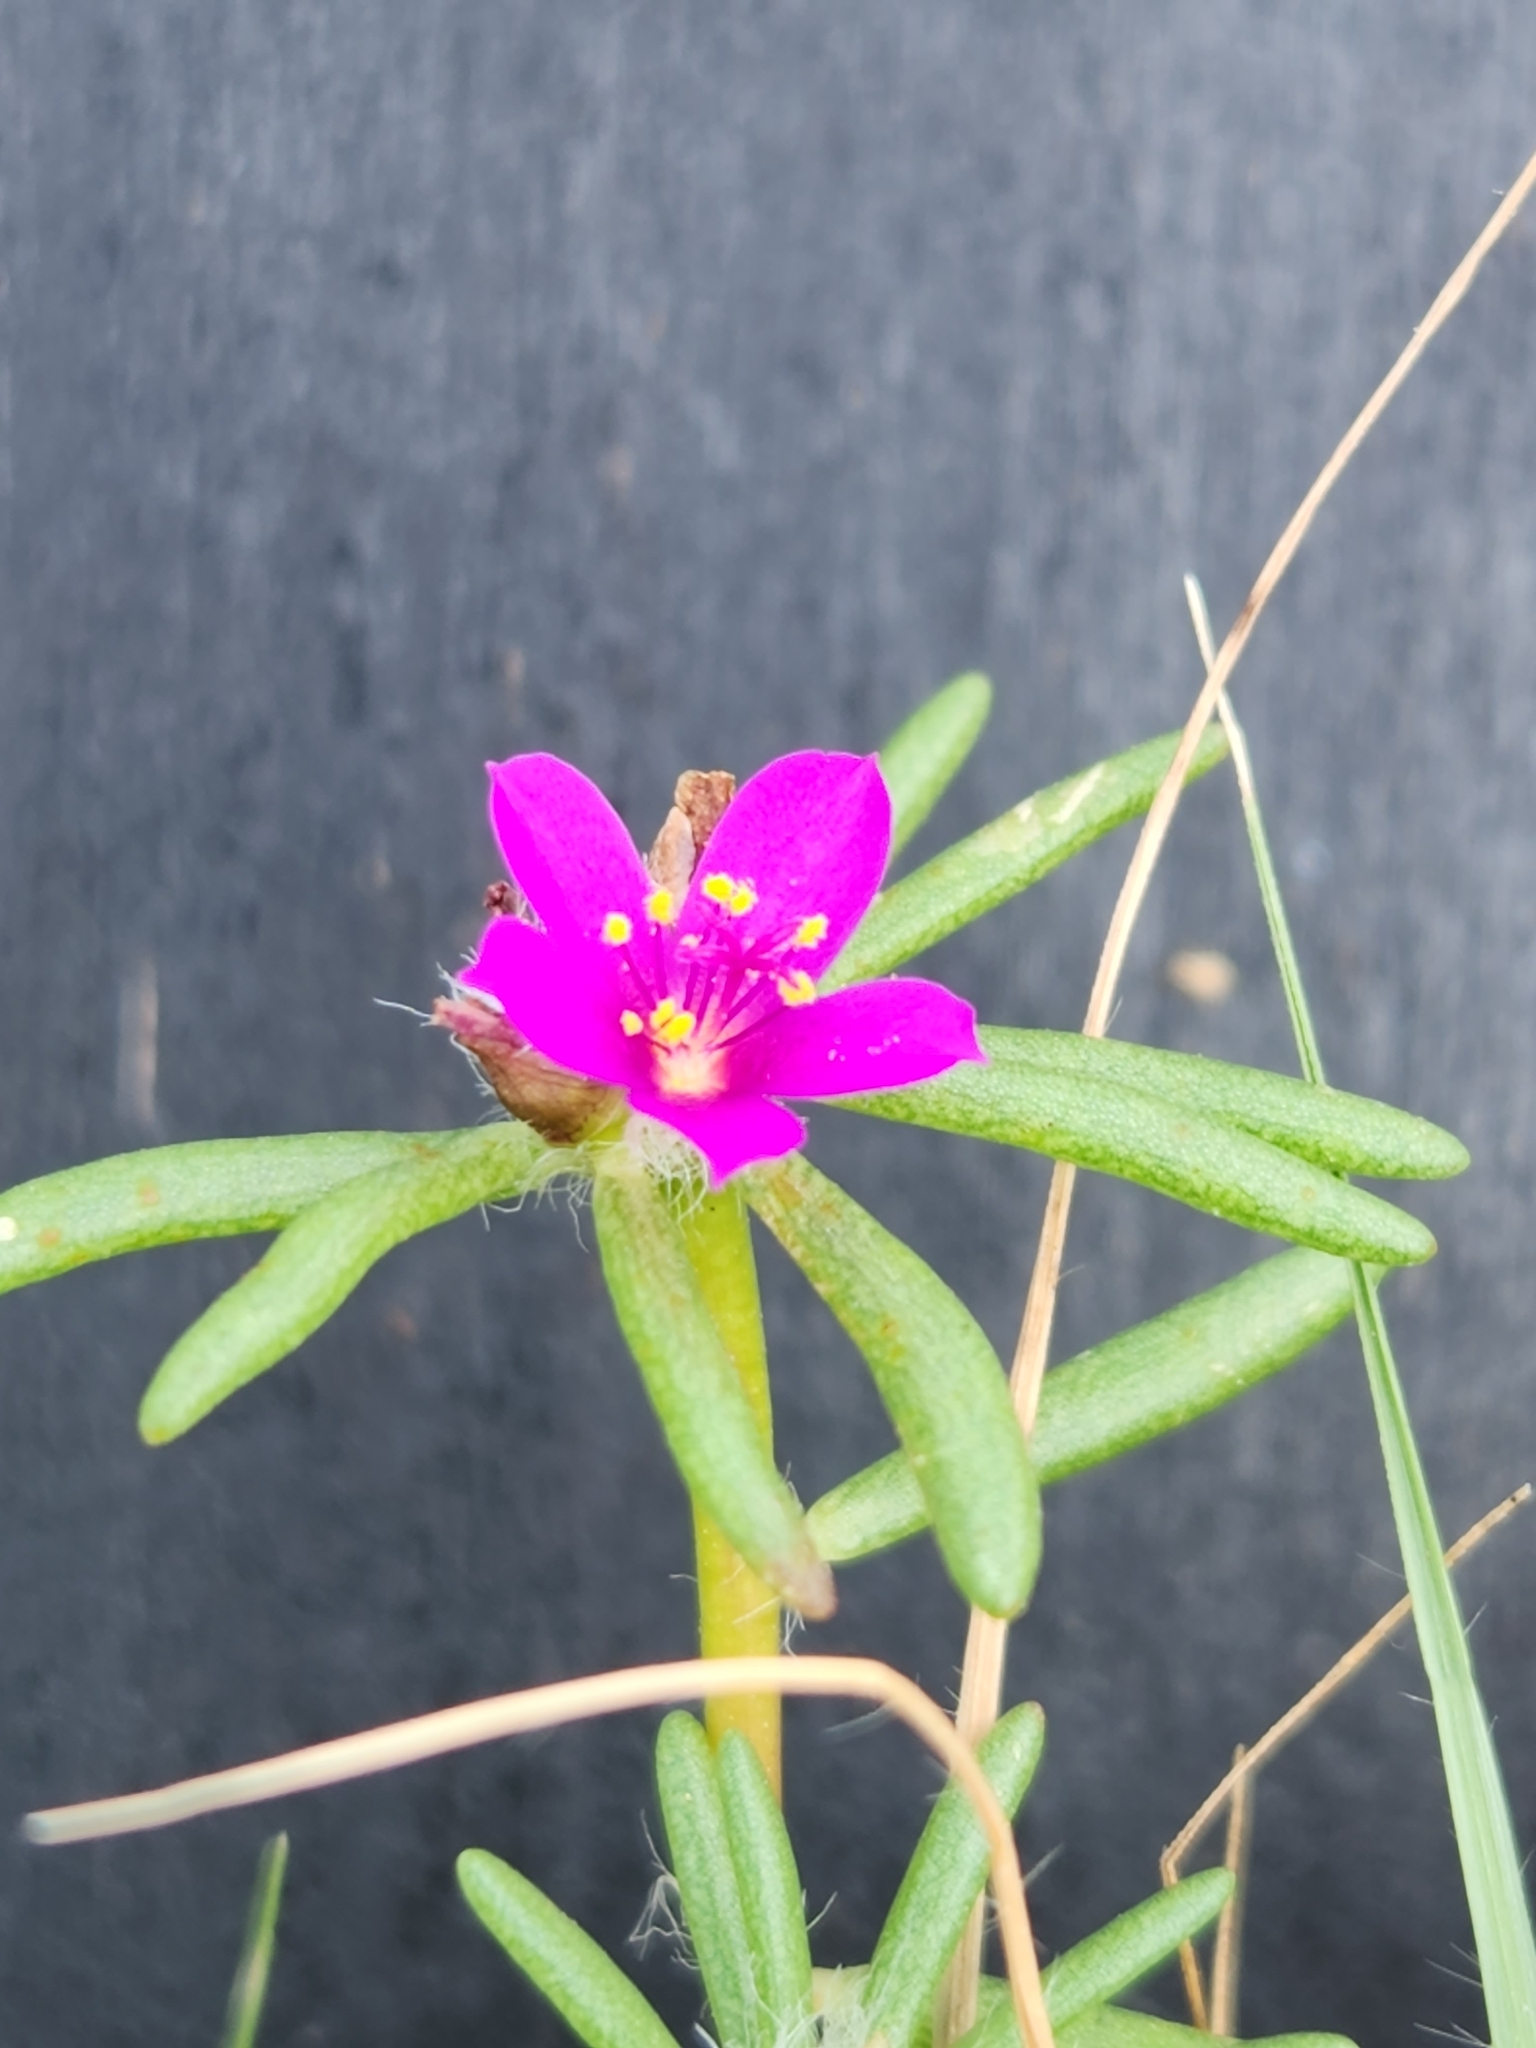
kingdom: Plantae
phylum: Tracheophyta
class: Magnoliopsida
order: Caryophyllales
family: Portulacaceae
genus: Portulaca
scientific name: Portulaca pilosa
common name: Kiss me quick
